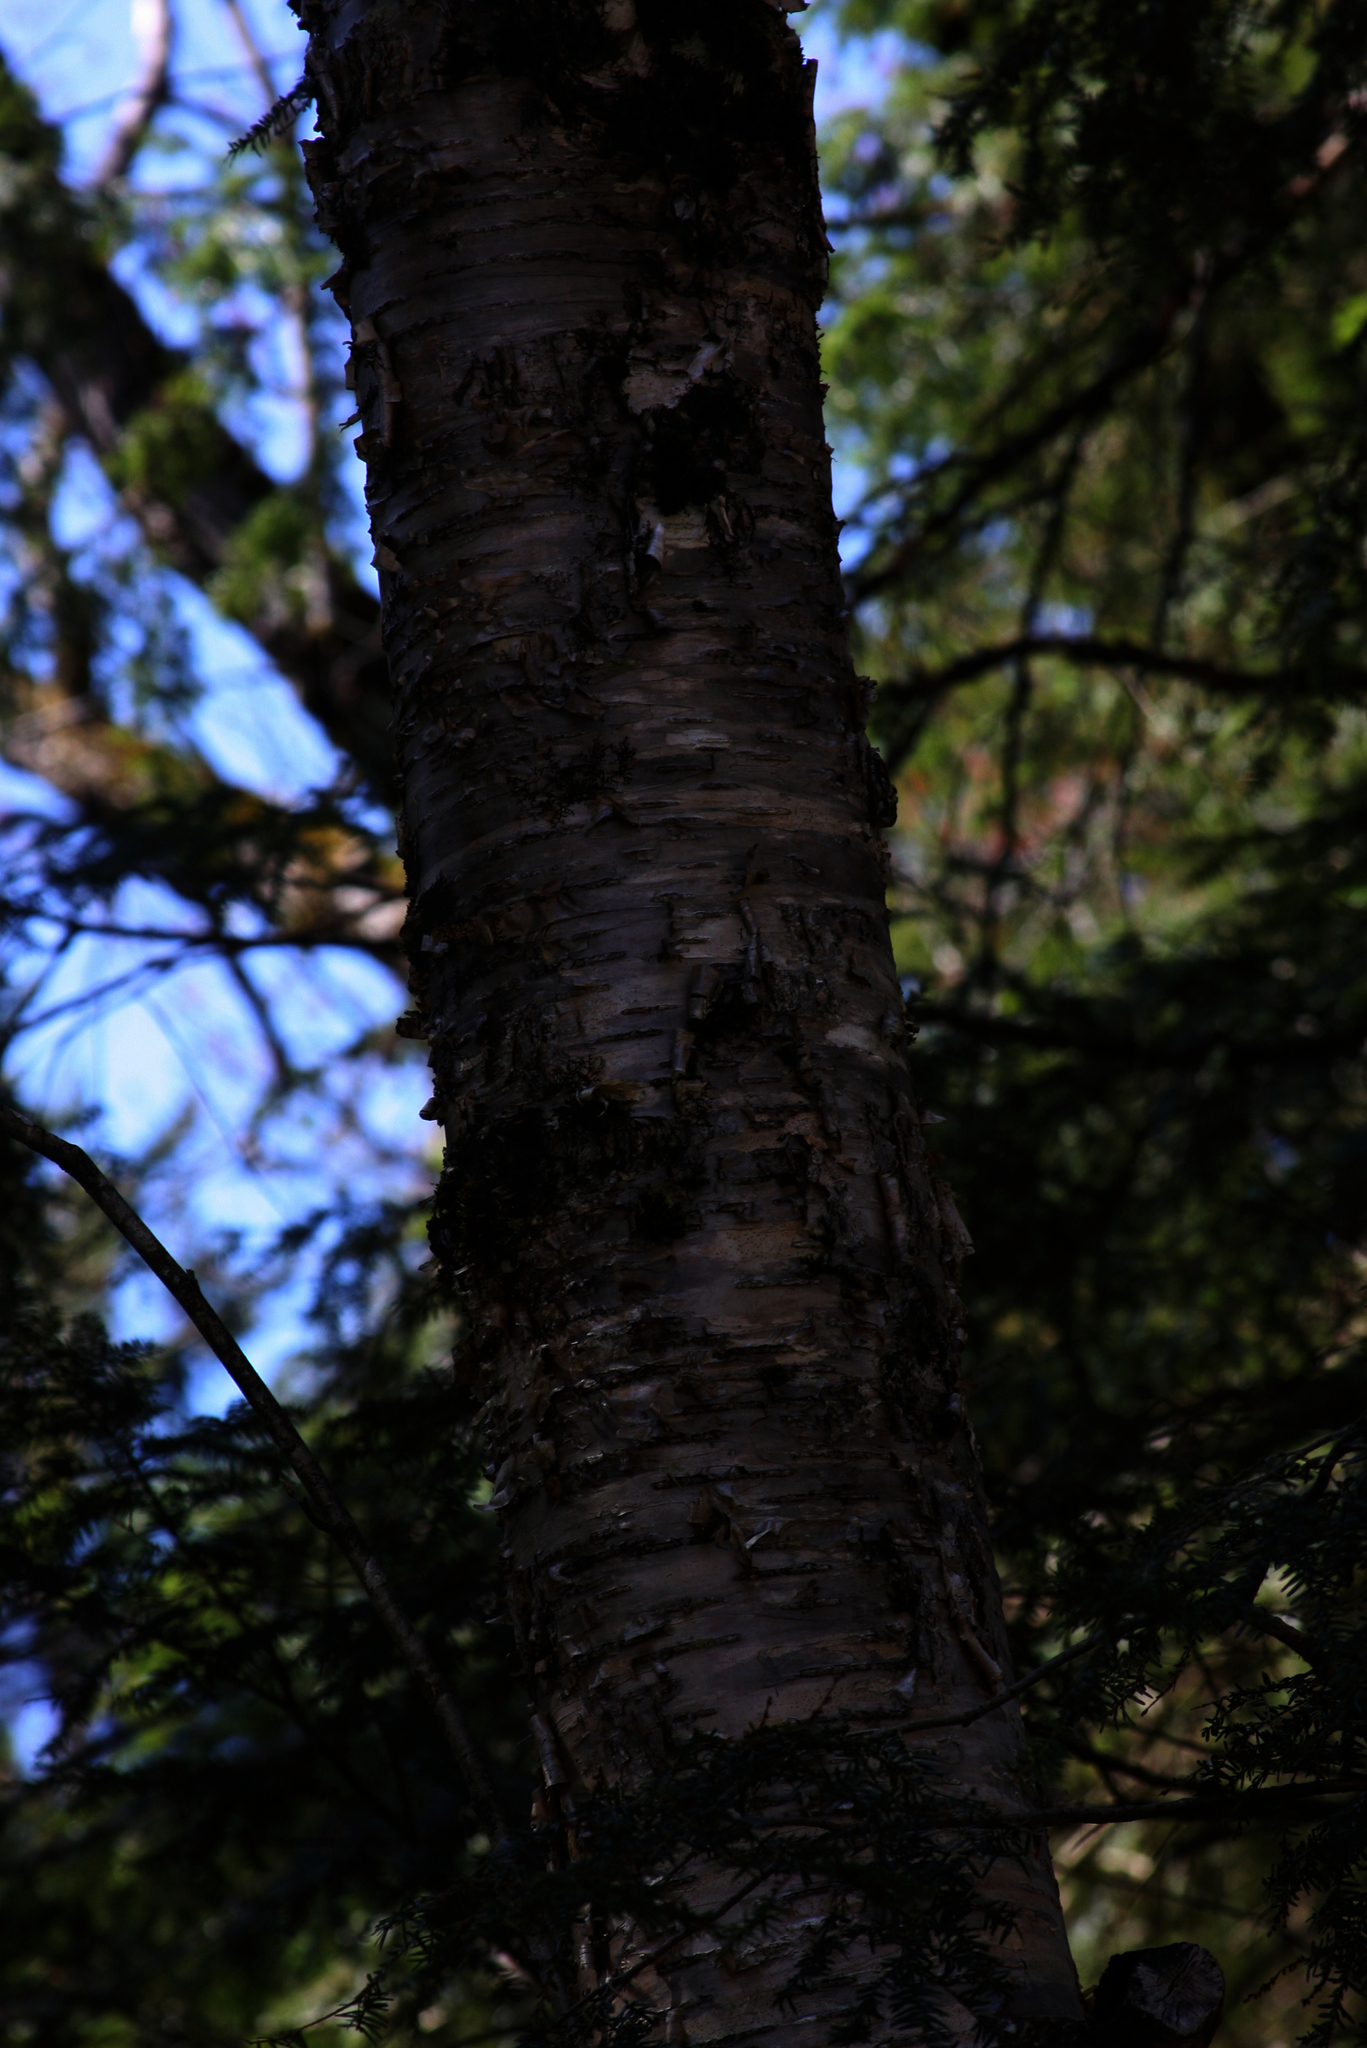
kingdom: Plantae
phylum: Tracheophyta
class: Magnoliopsida
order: Fagales
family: Betulaceae
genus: Betula
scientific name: Betula alleghaniensis
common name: Yellow birch
